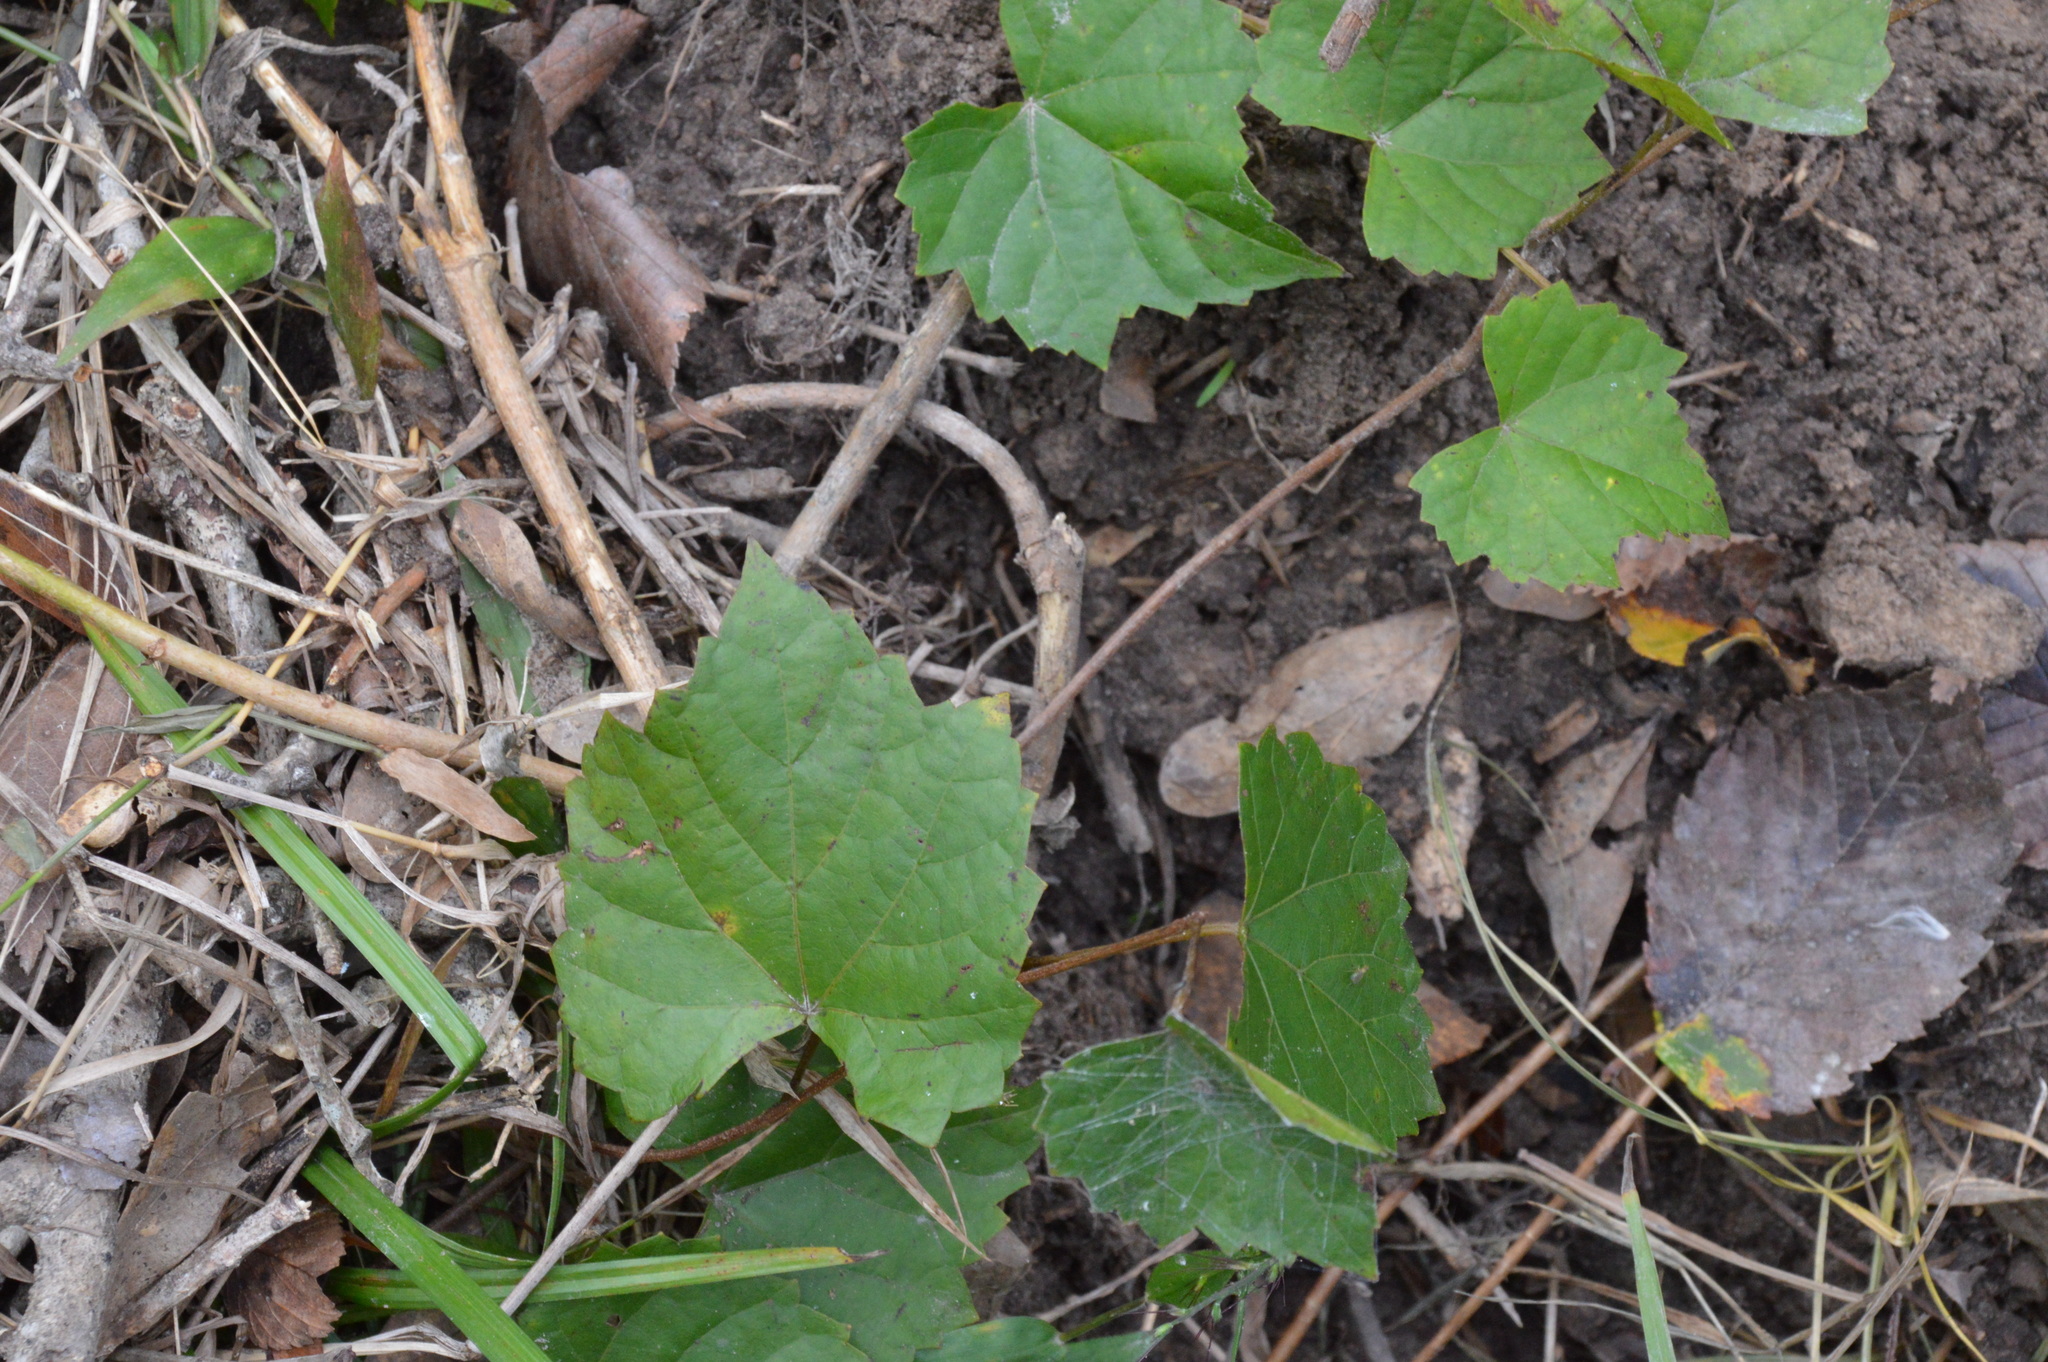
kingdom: Plantae
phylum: Tracheophyta
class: Magnoliopsida
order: Vitales
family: Vitaceae
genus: Vitis
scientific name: Vitis rotundifolia
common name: Muscadine grape
